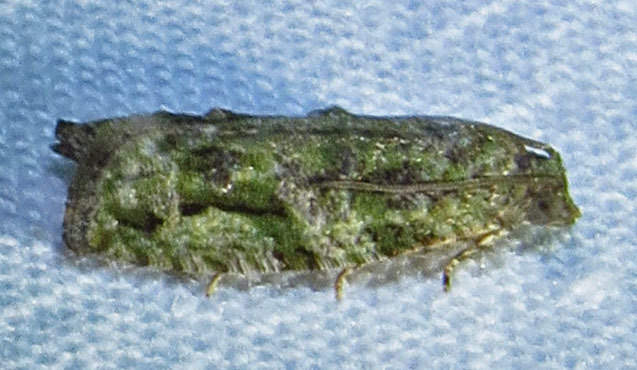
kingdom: Animalia
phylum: Arthropoda
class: Insecta
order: Lepidoptera
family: Tortricidae
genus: Proteoteras
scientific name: Proteoteras aesculana
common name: Maple twig borer moth
